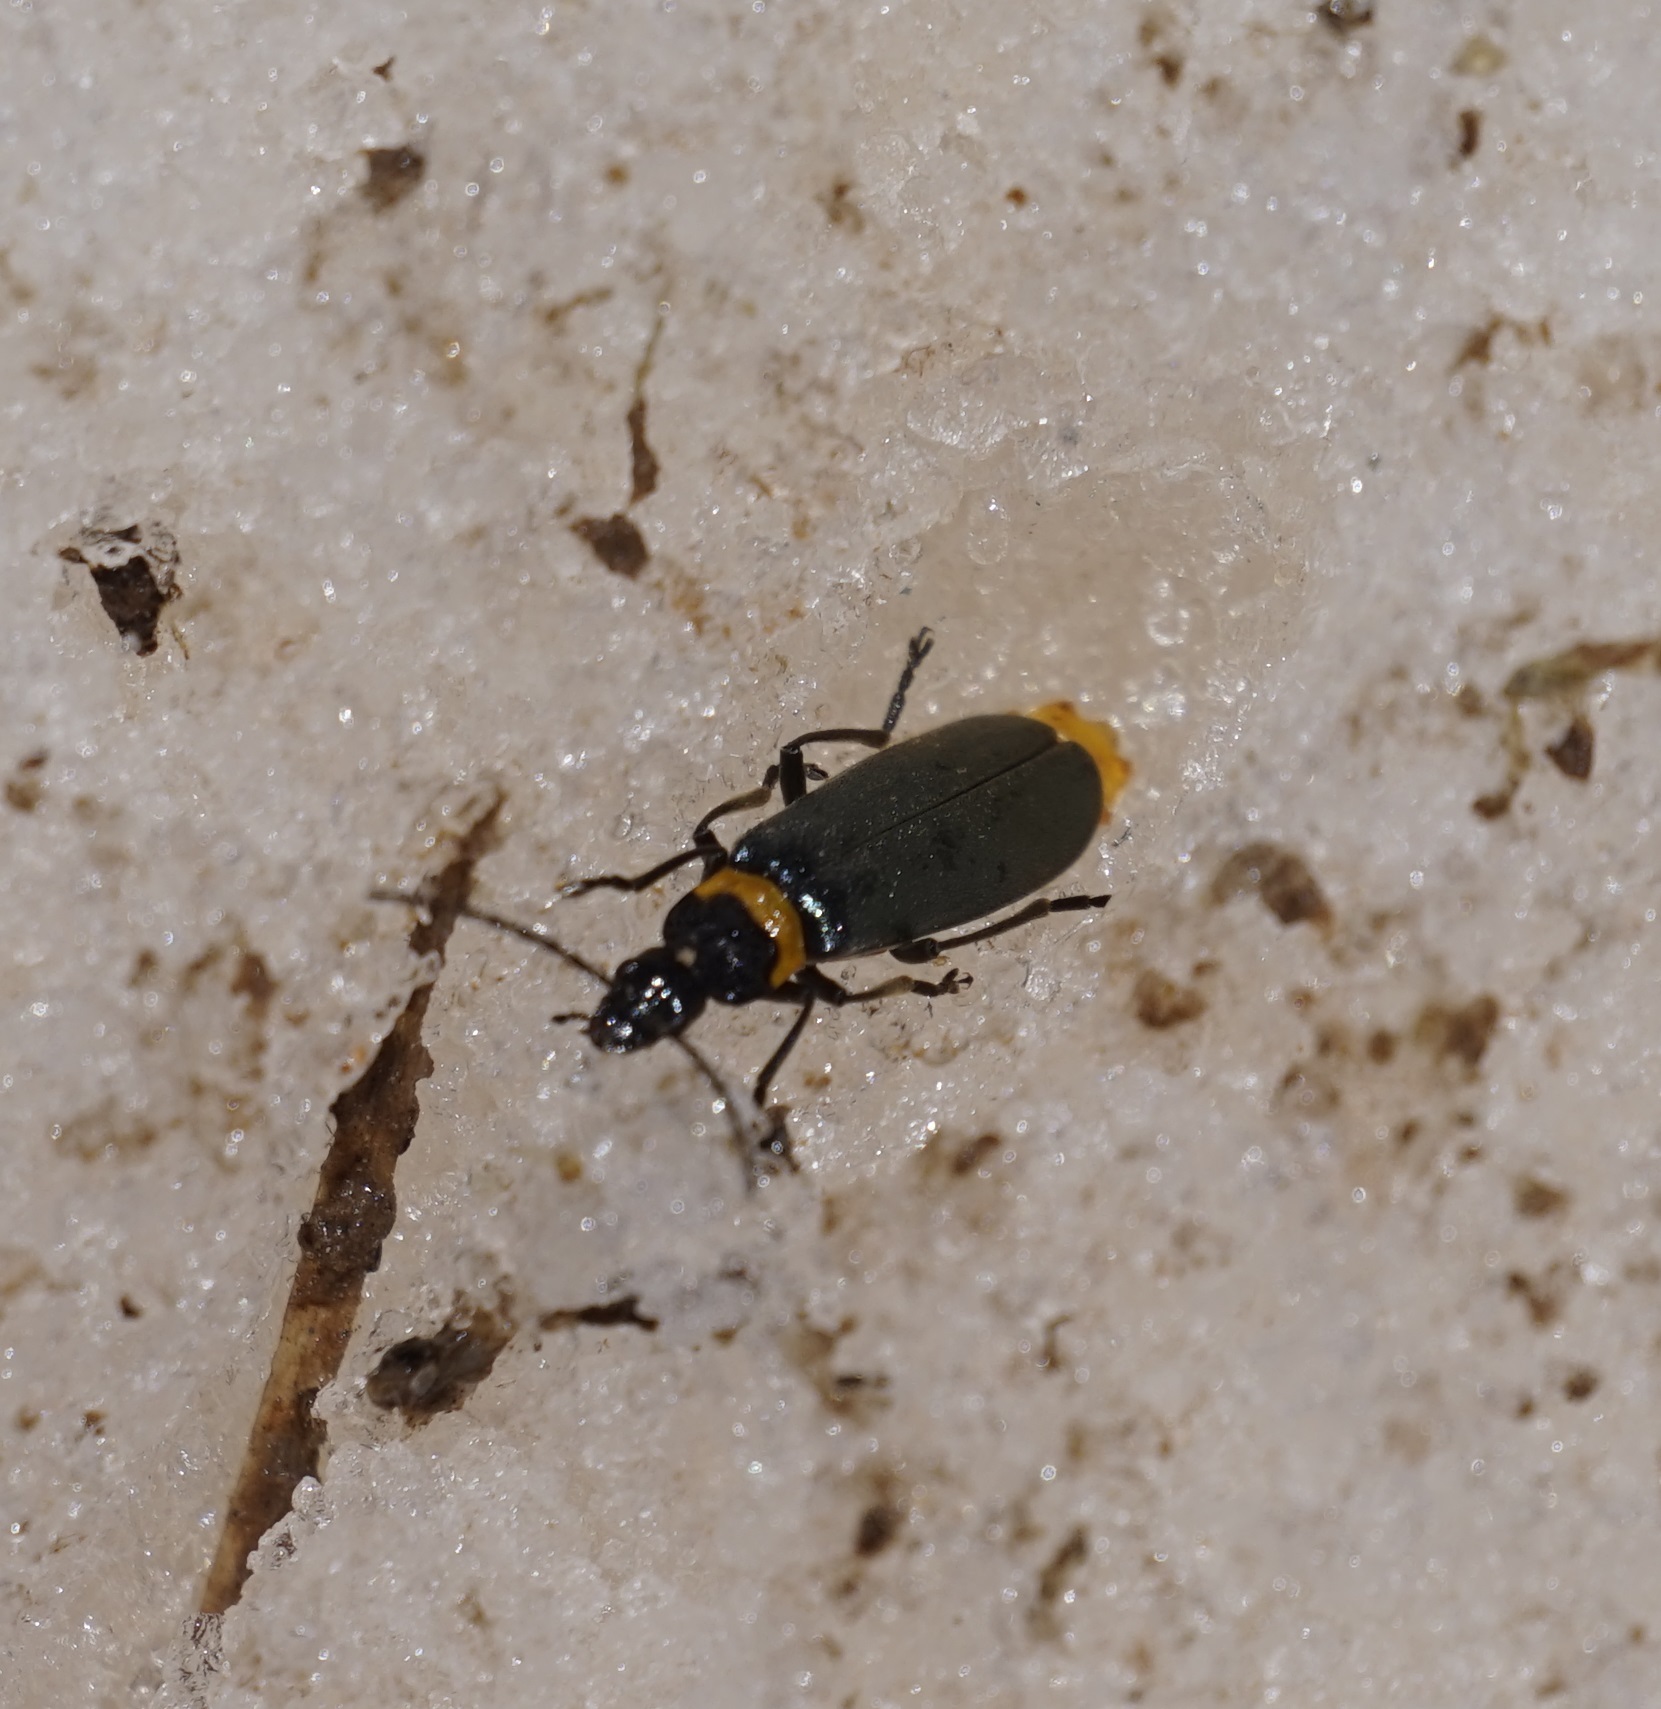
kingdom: Animalia
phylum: Arthropoda
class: Insecta
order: Coleoptera
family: Cantharidae
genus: Chauliognathus
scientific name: Chauliognathus
